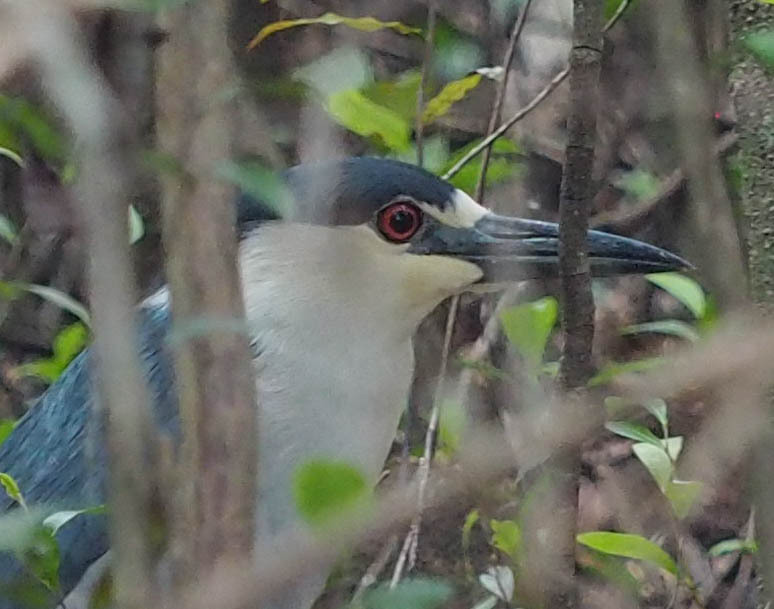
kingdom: Animalia
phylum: Chordata
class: Aves
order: Pelecaniformes
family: Ardeidae
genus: Nycticorax
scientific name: Nycticorax nycticorax
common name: Black-crowned night heron
